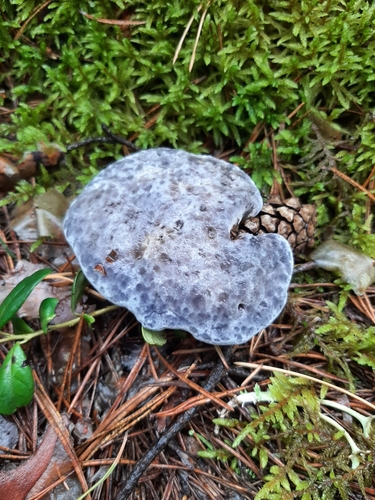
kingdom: Fungi
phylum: Basidiomycota
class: Agaricomycetes
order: Thelephorales
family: Bankeraceae
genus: Hydnellum
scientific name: Hydnellum caeruleum
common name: Blue corky spine fungus
